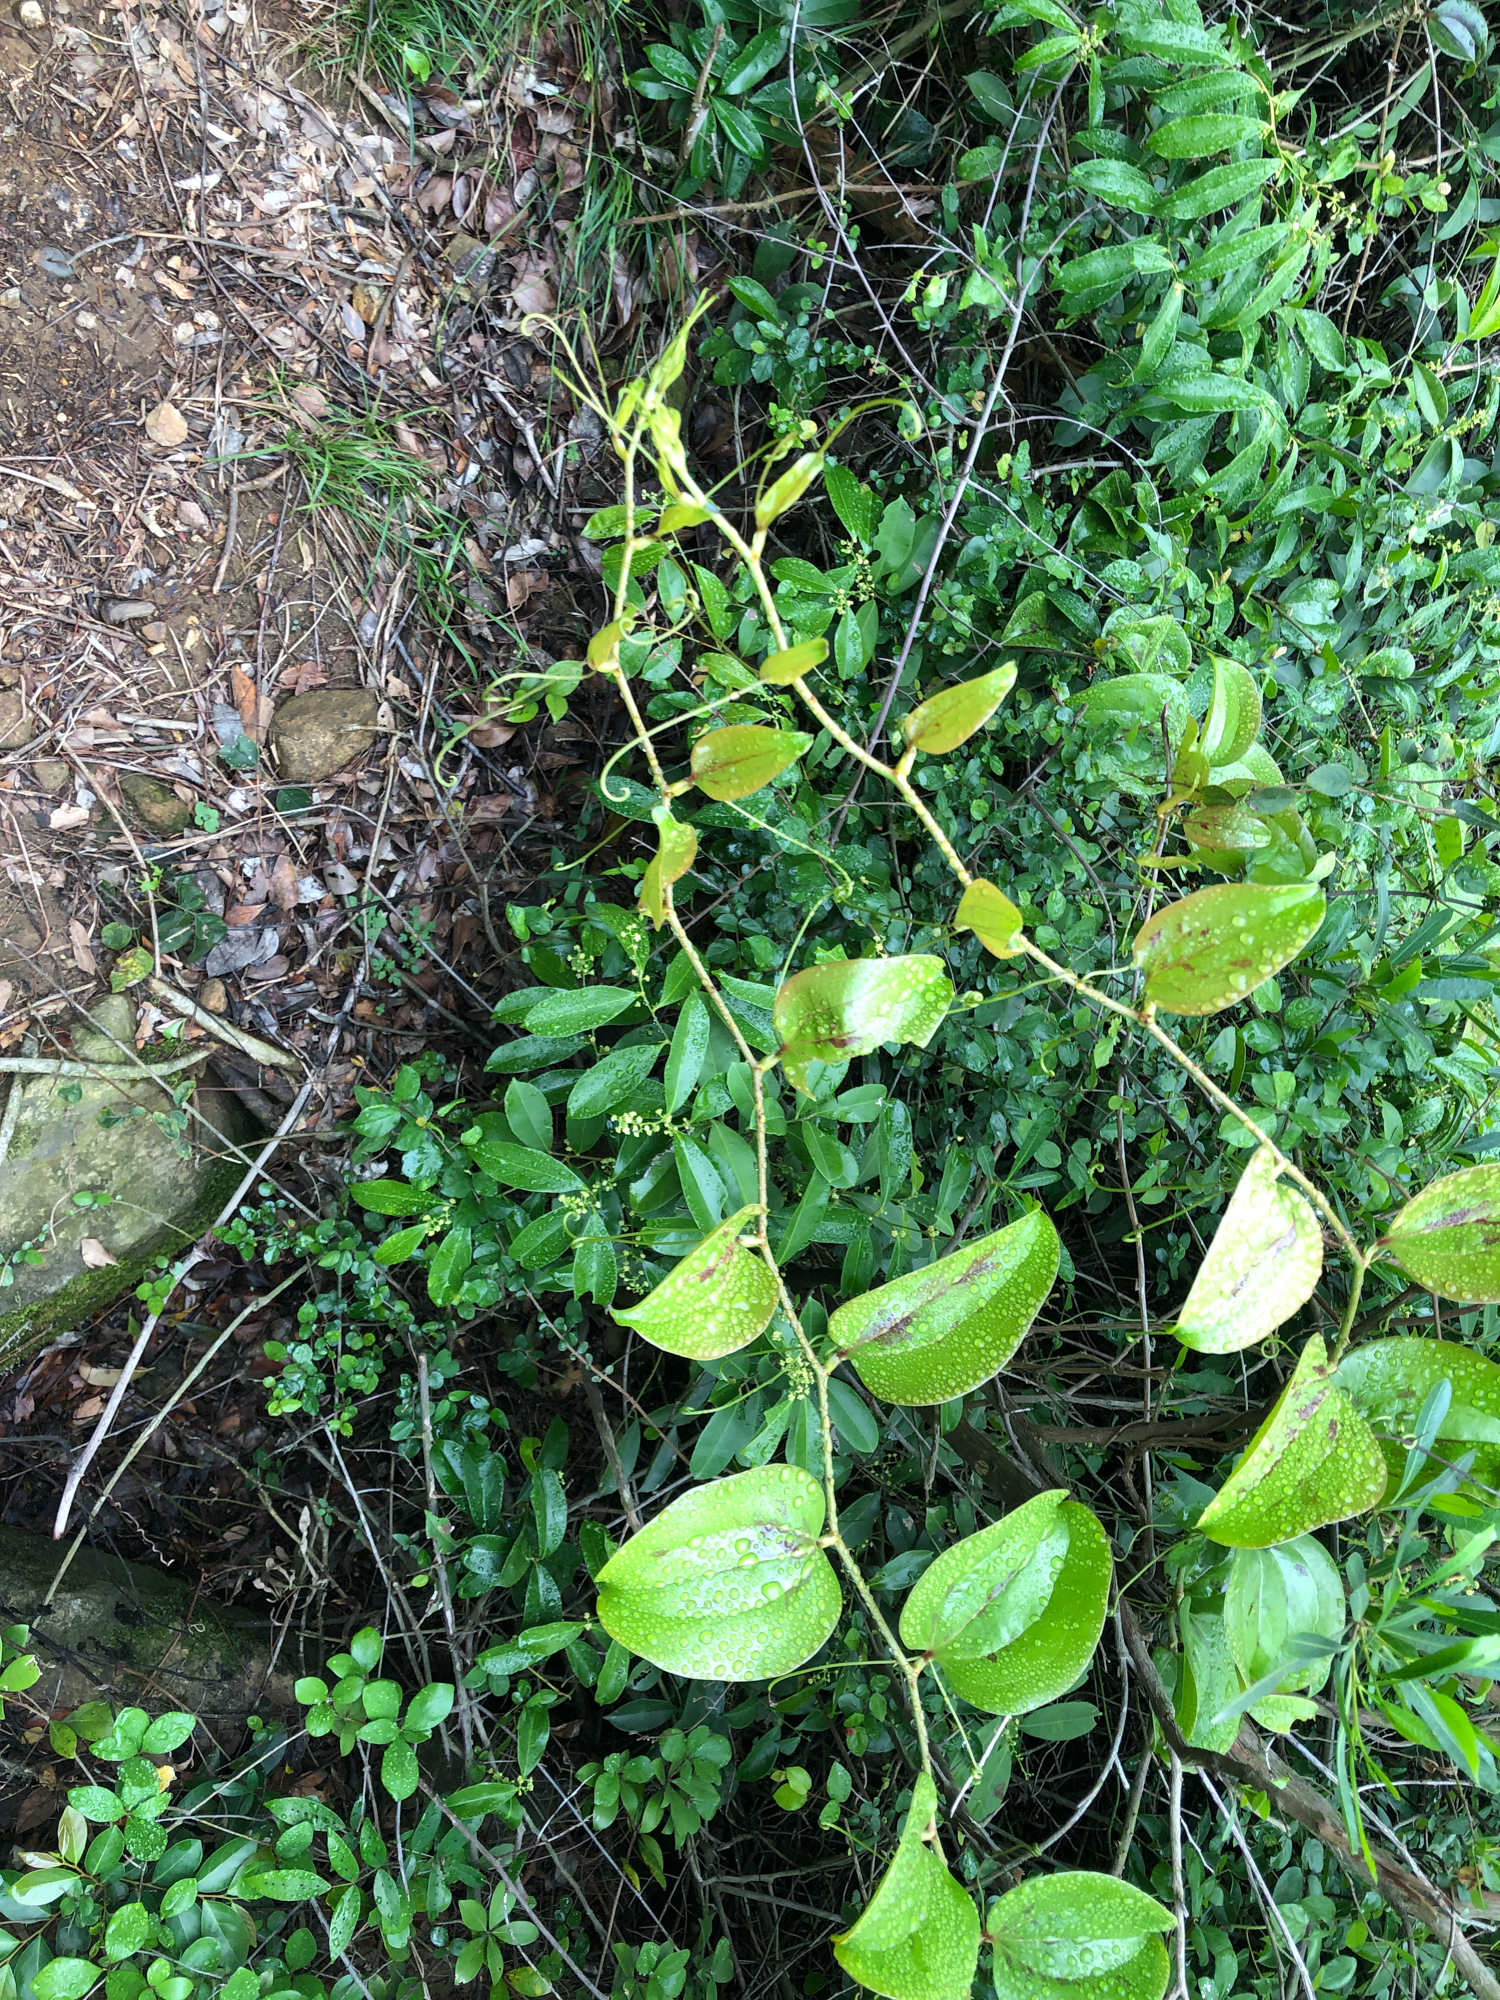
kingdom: Plantae
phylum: Tracheophyta
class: Liliopsida
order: Liliales
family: Smilacaceae
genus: Smilax
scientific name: Smilax china
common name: Chinaroot
